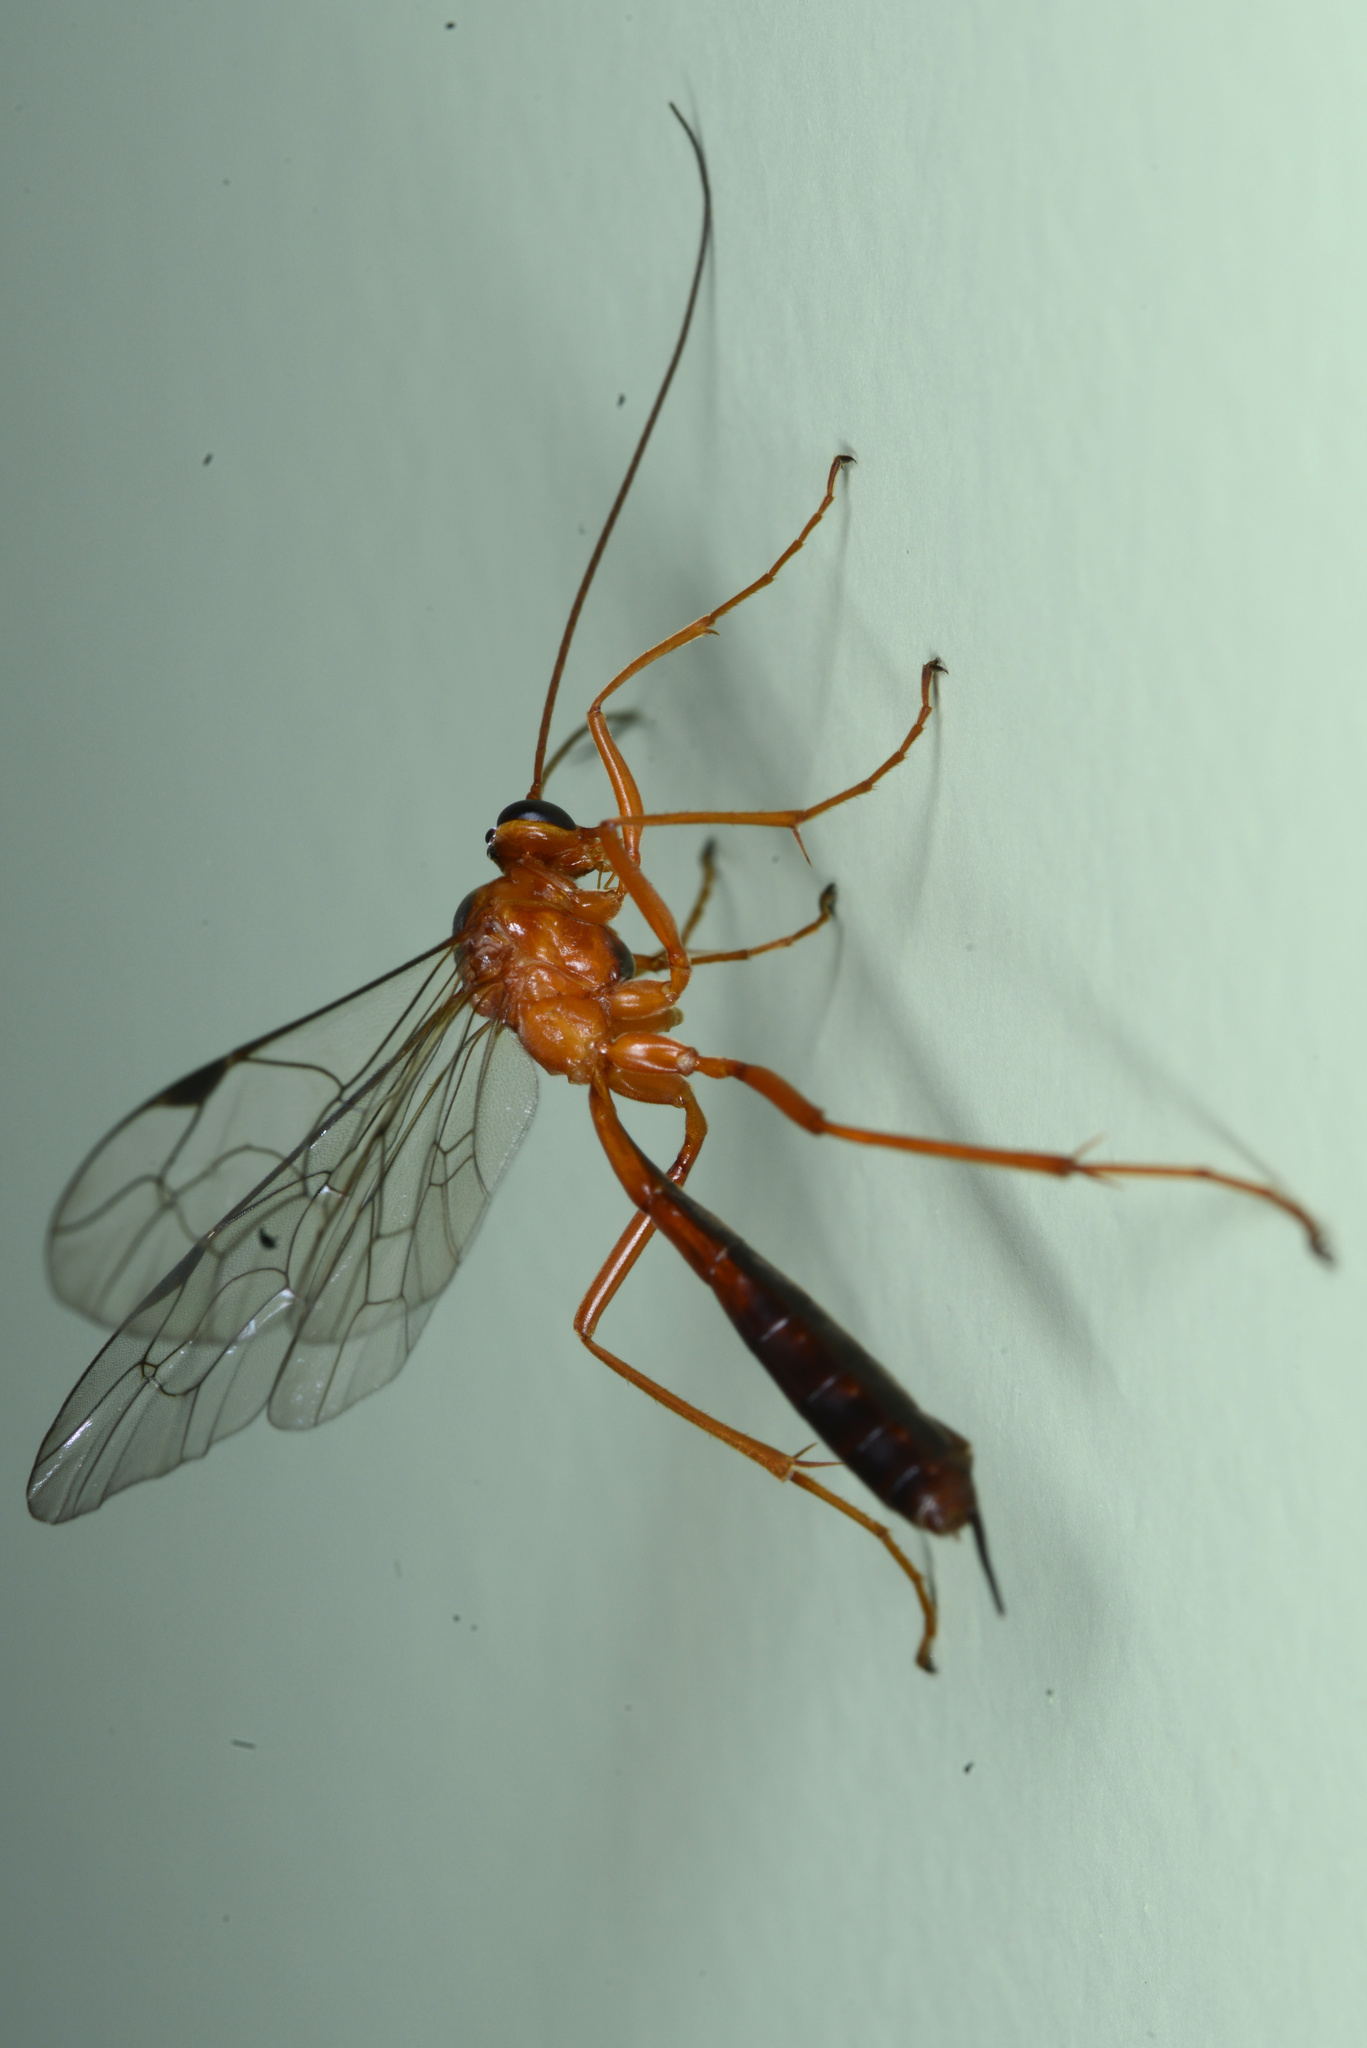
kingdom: Animalia
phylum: Arthropoda
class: Insecta
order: Hymenoptera
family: Ichneumonidae
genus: Netelia
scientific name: Netelia ephippiata
